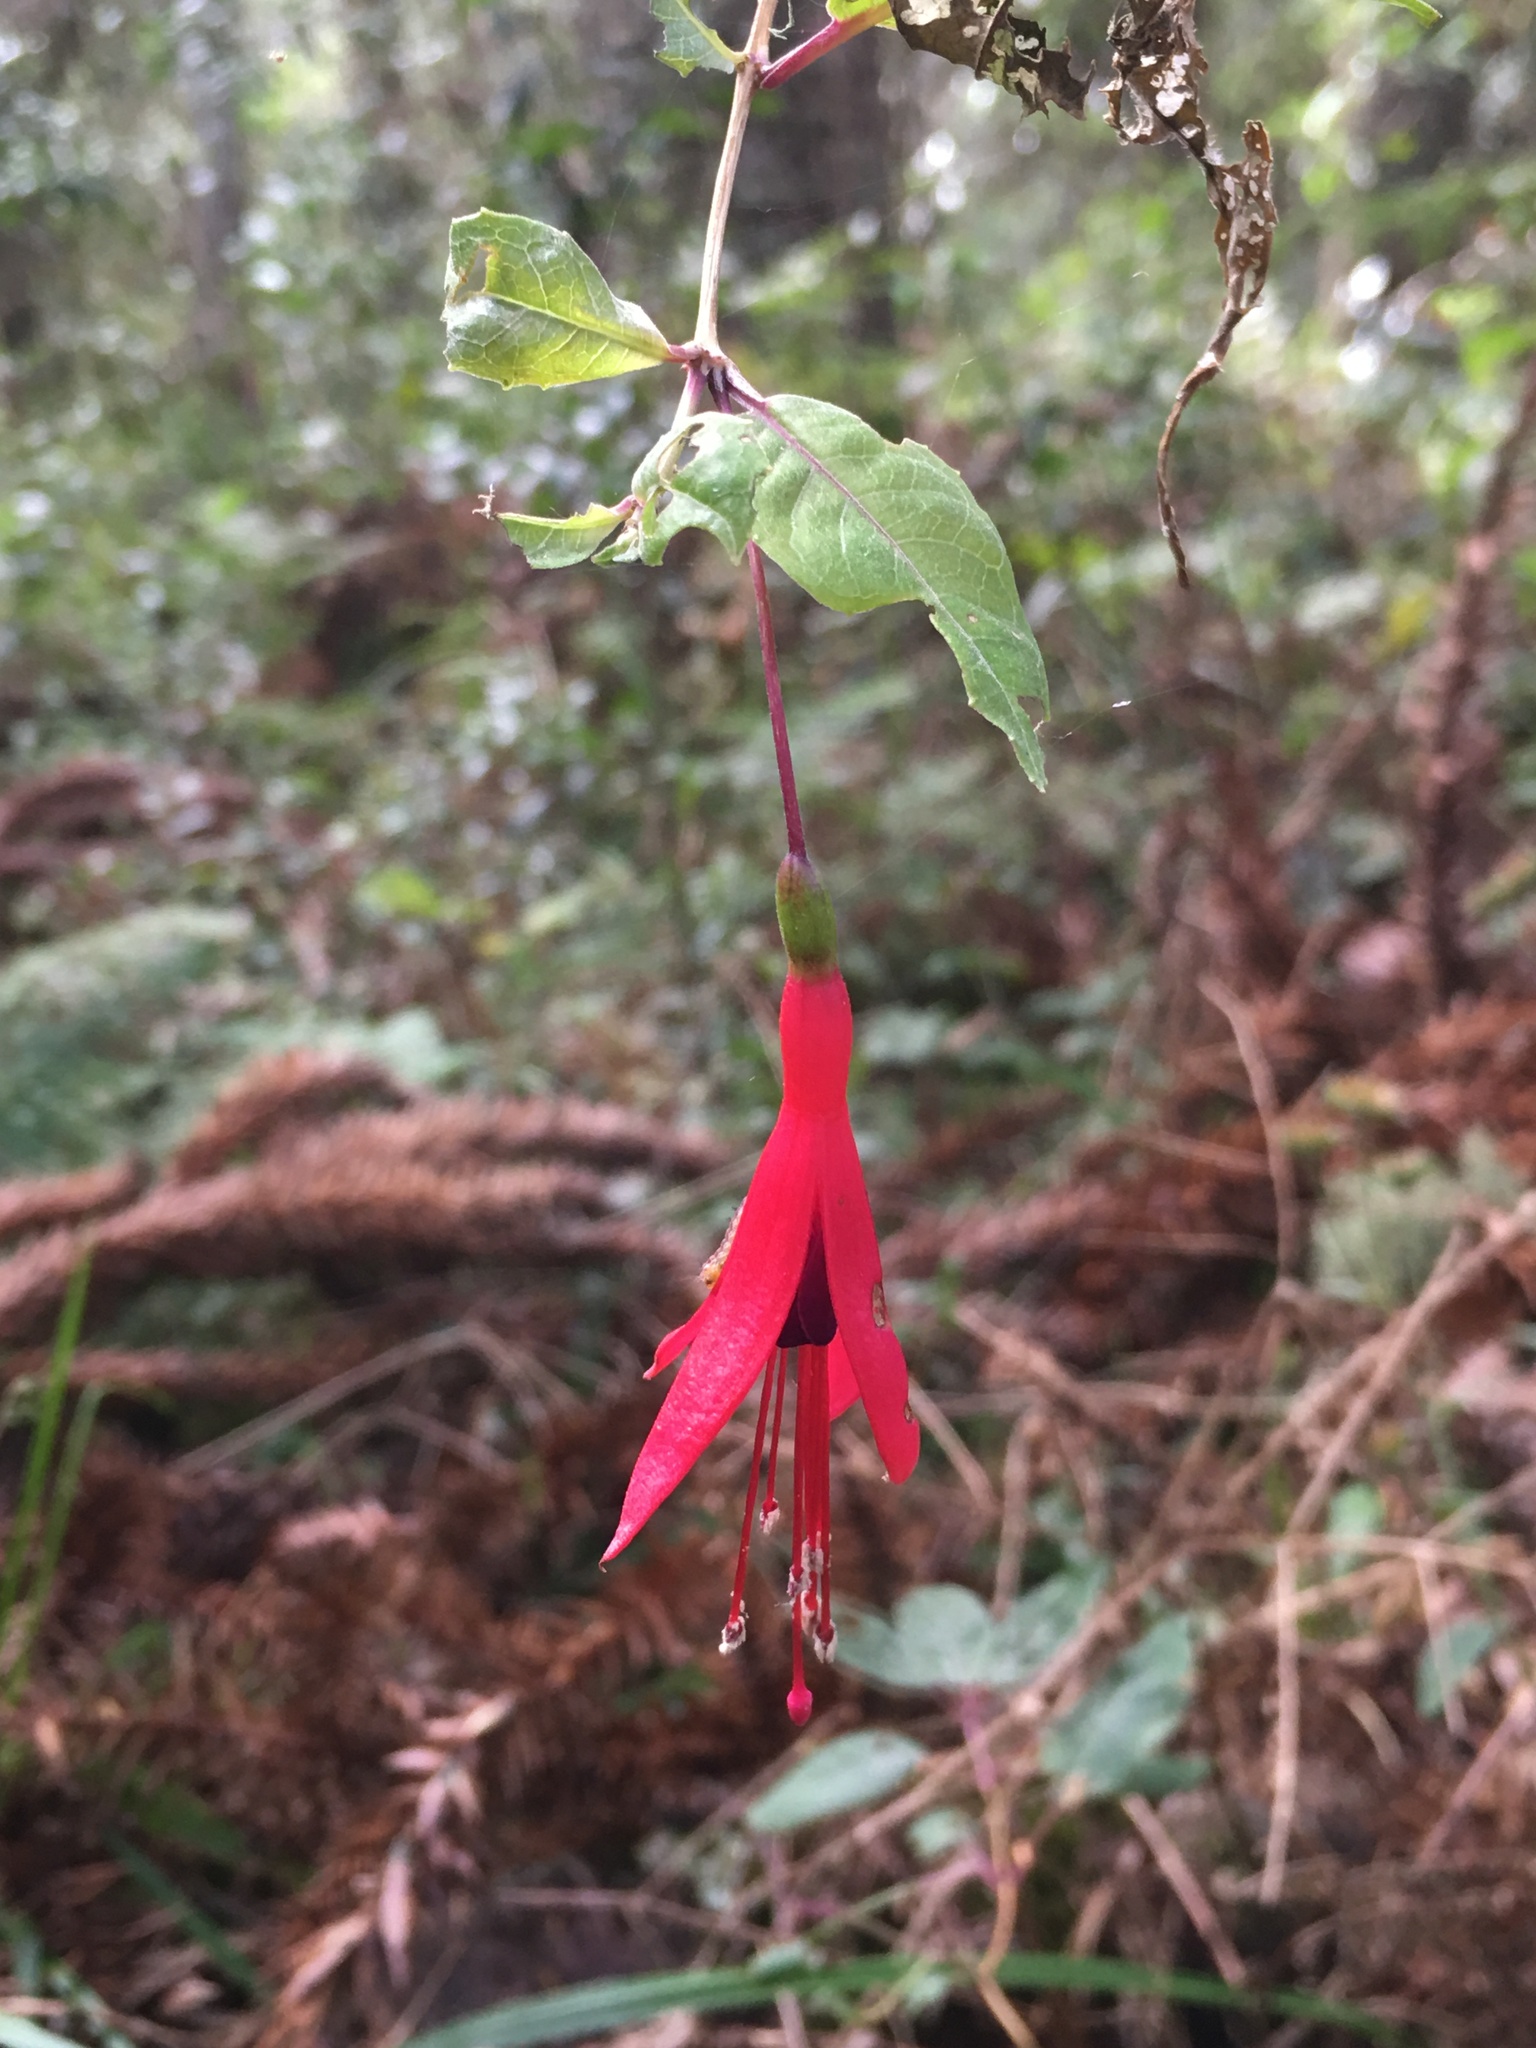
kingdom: Plantae
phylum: Tracheophyta
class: Magnoliopsida
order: Myrtales
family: Onagraceae
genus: Fuchsia
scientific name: Fuchsia regia
